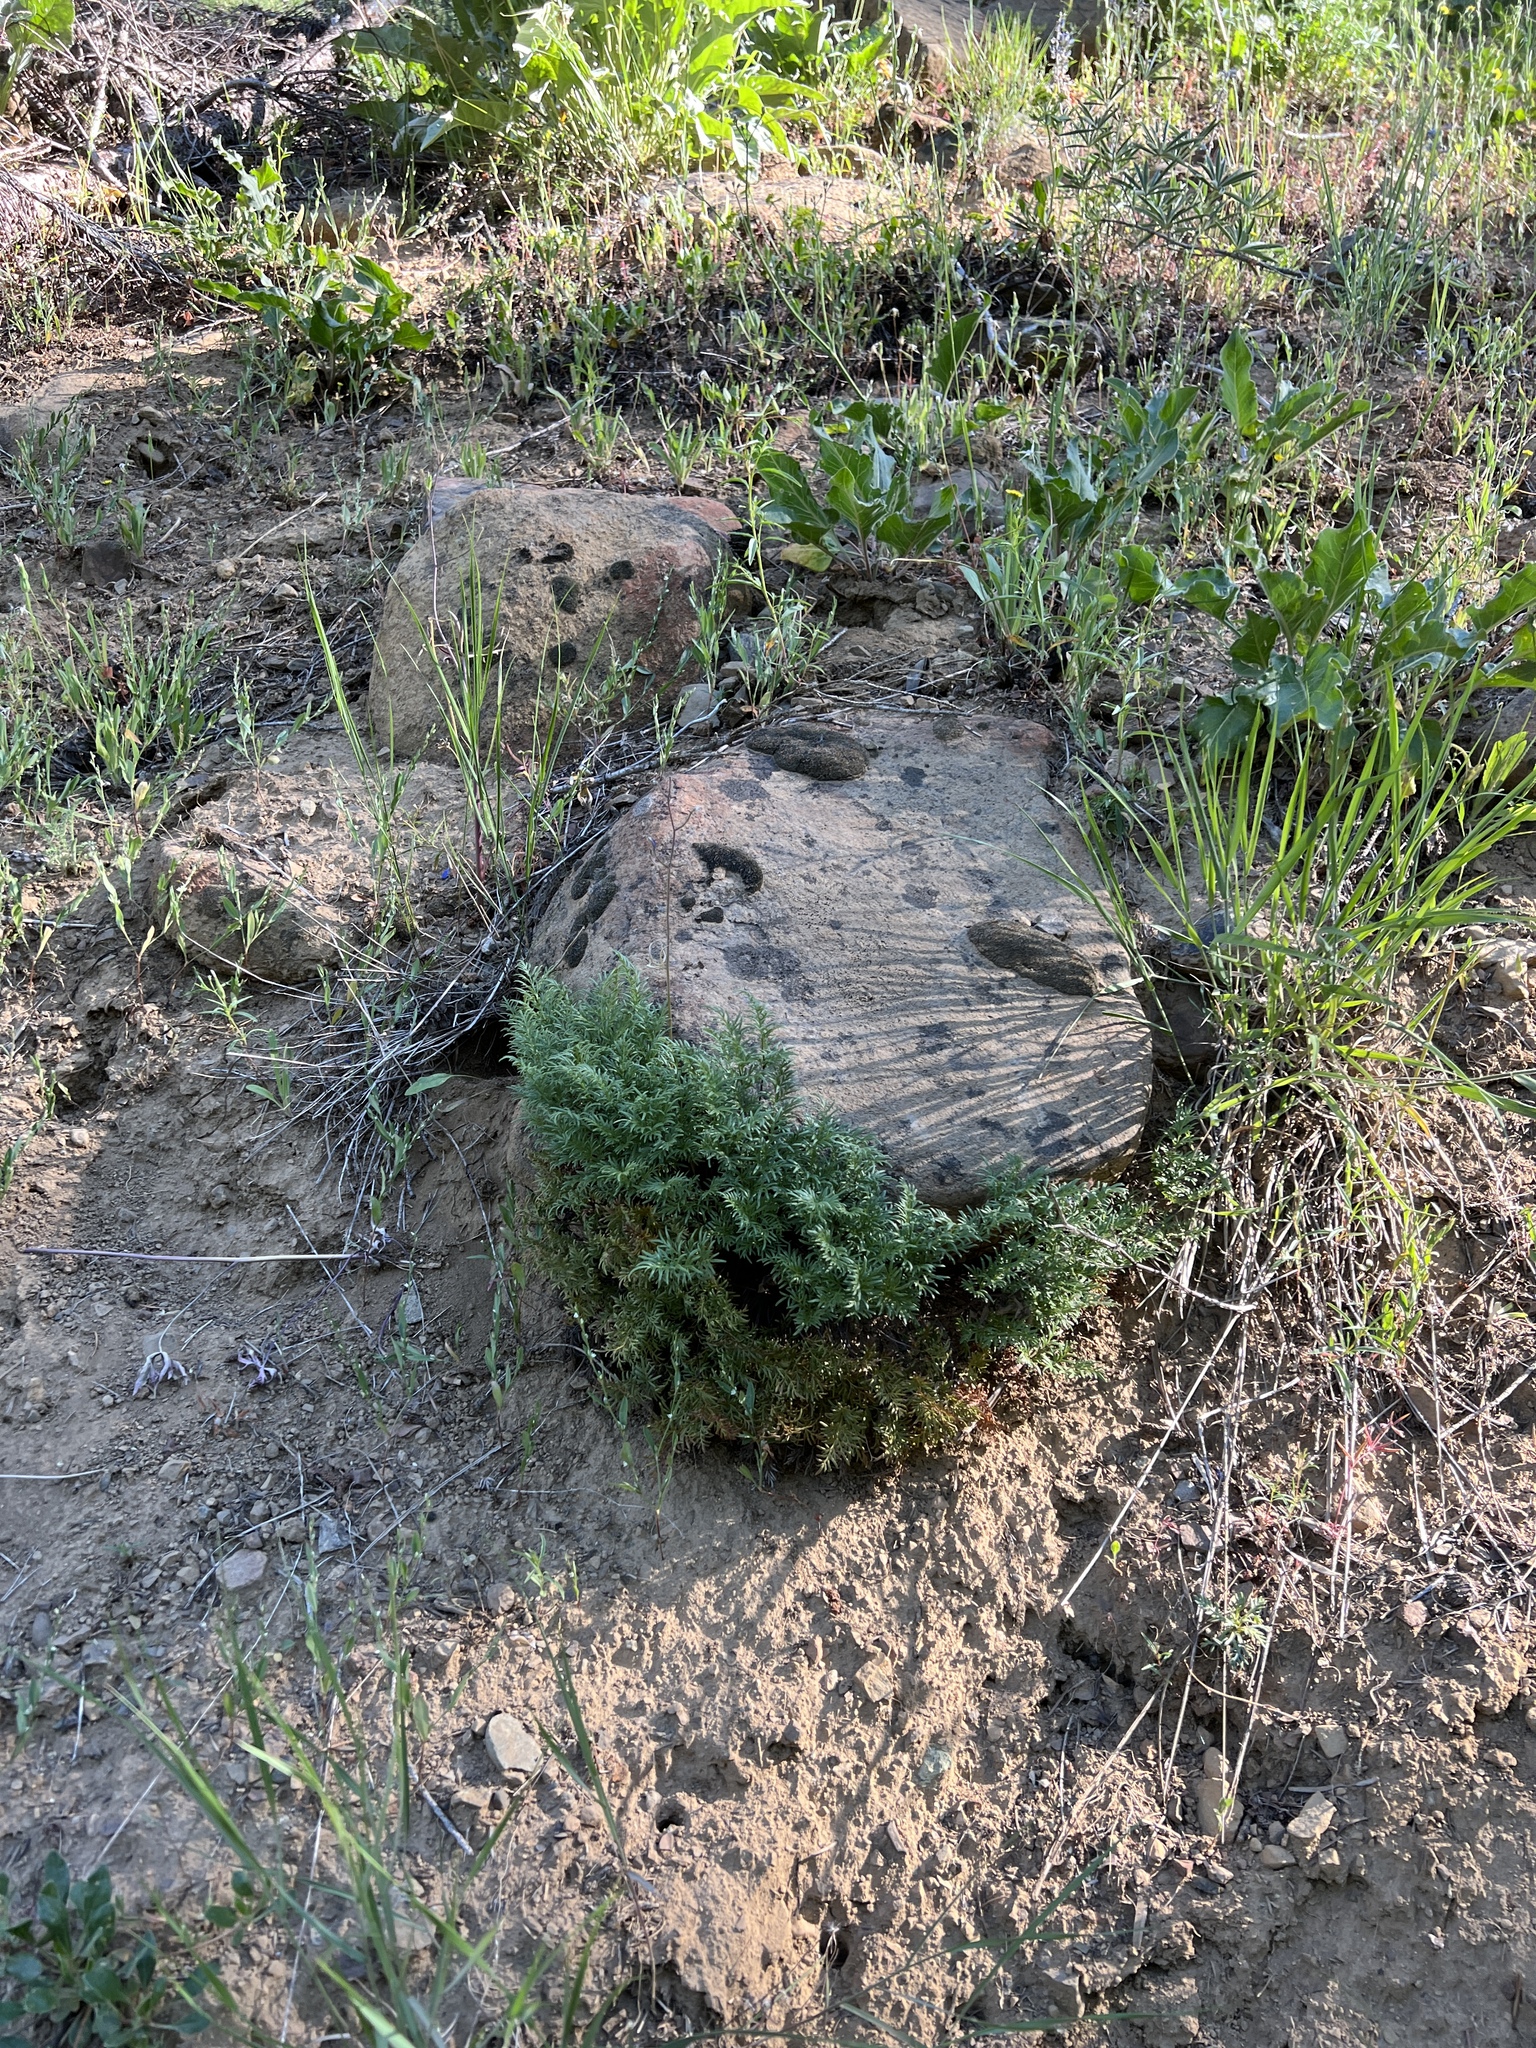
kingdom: Plantae
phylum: Tracheophyta
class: Polypodiopsida
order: Polypodiales
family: Pteridaceae
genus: Aspidotis
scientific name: Aspidotis densa
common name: Indian's dream
